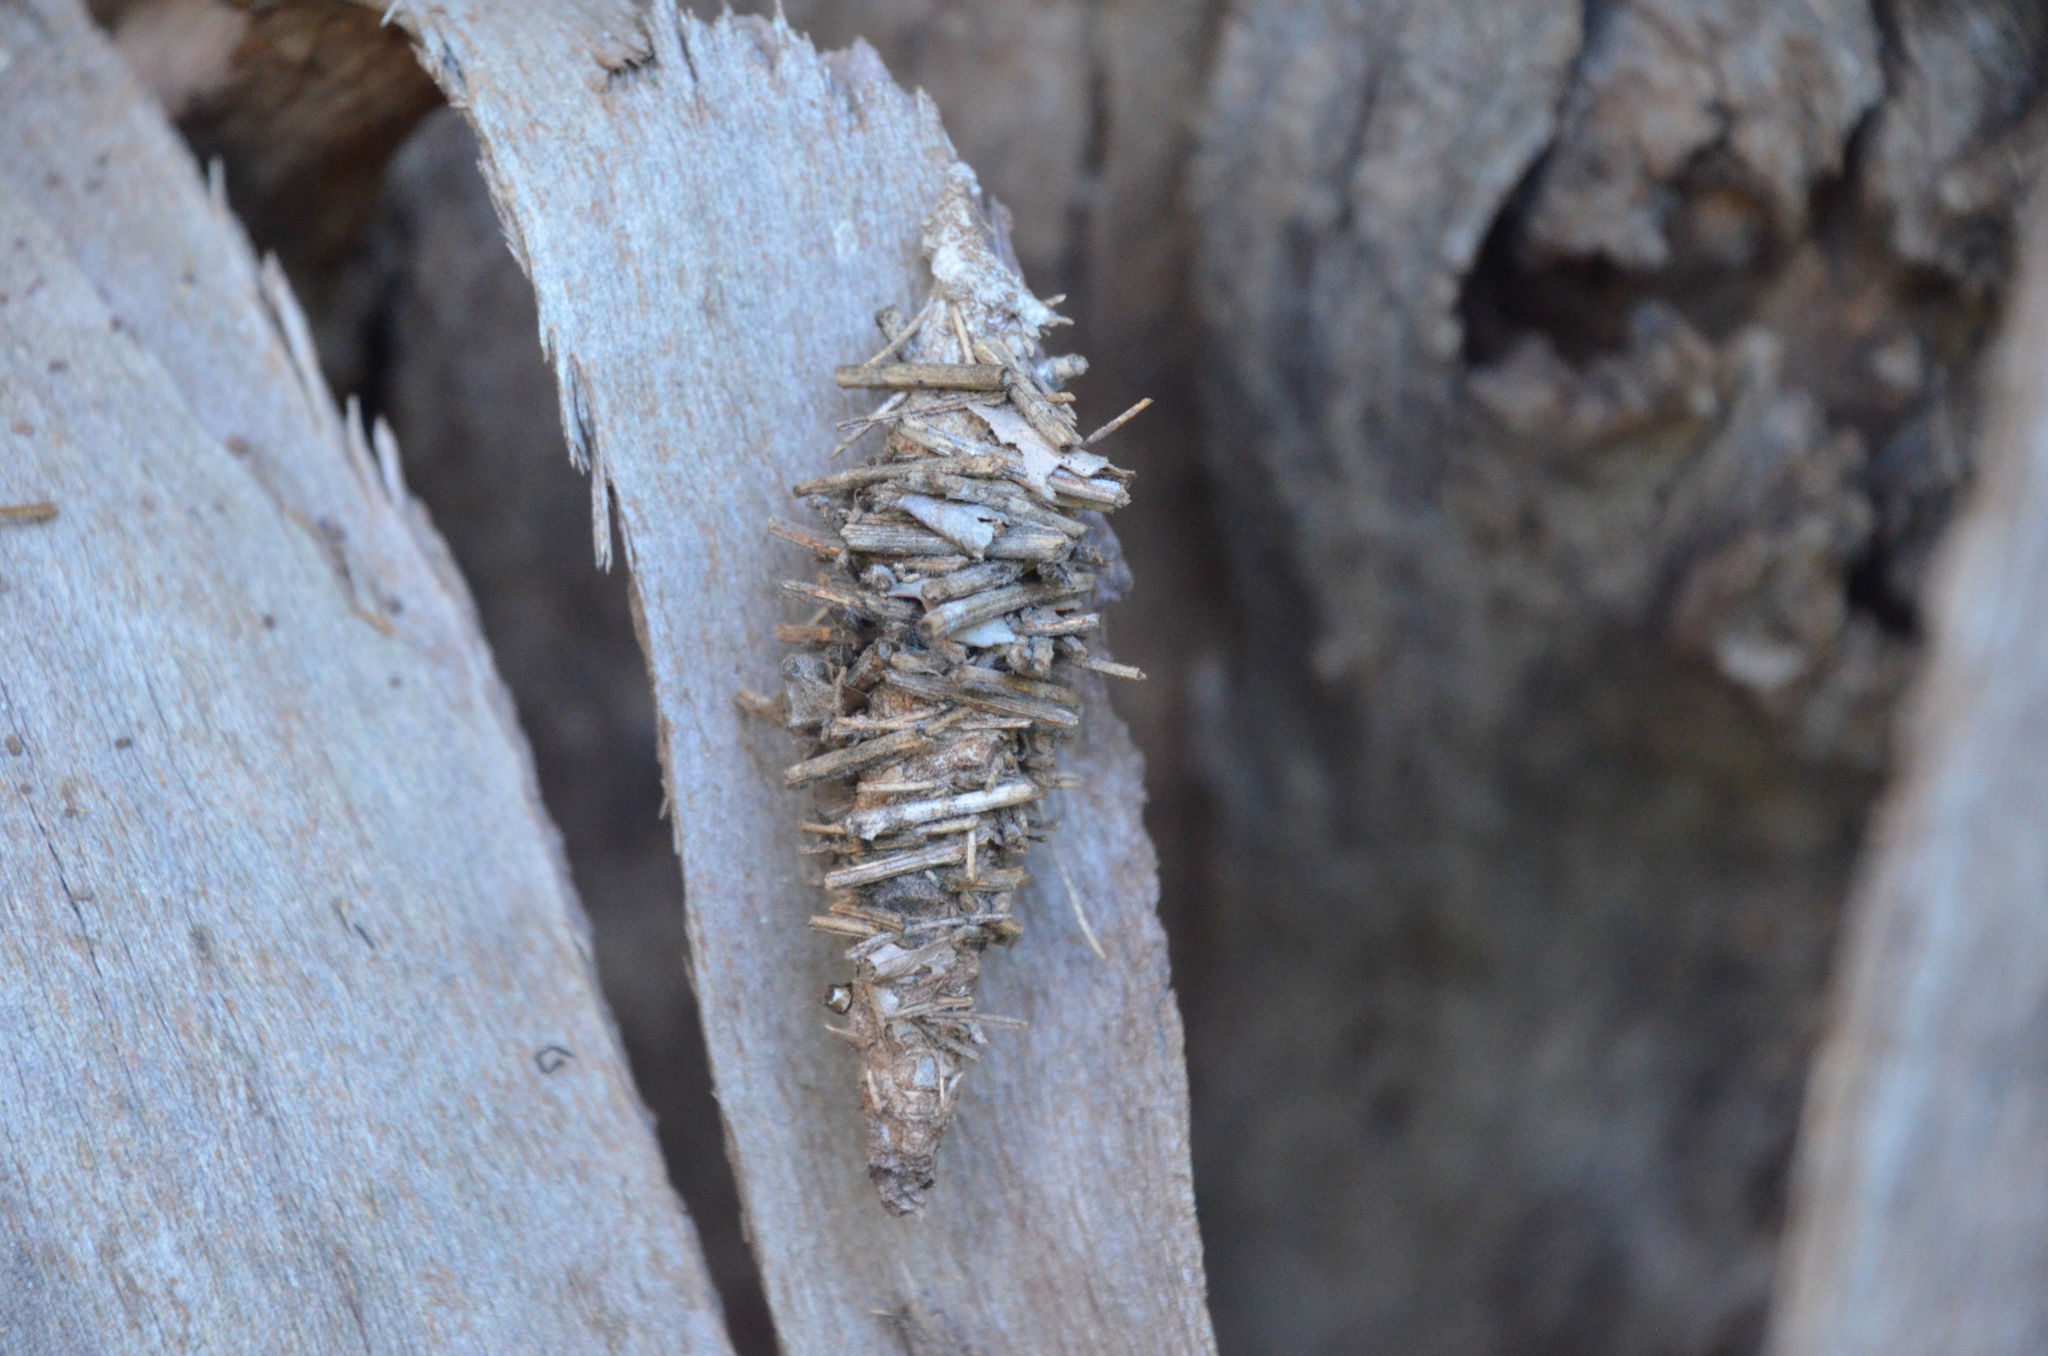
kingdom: Animalia
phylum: Arthropoda
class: Insecta
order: Lepidoptera
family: Psychidae
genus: Oiketicus
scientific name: Oiketicus
